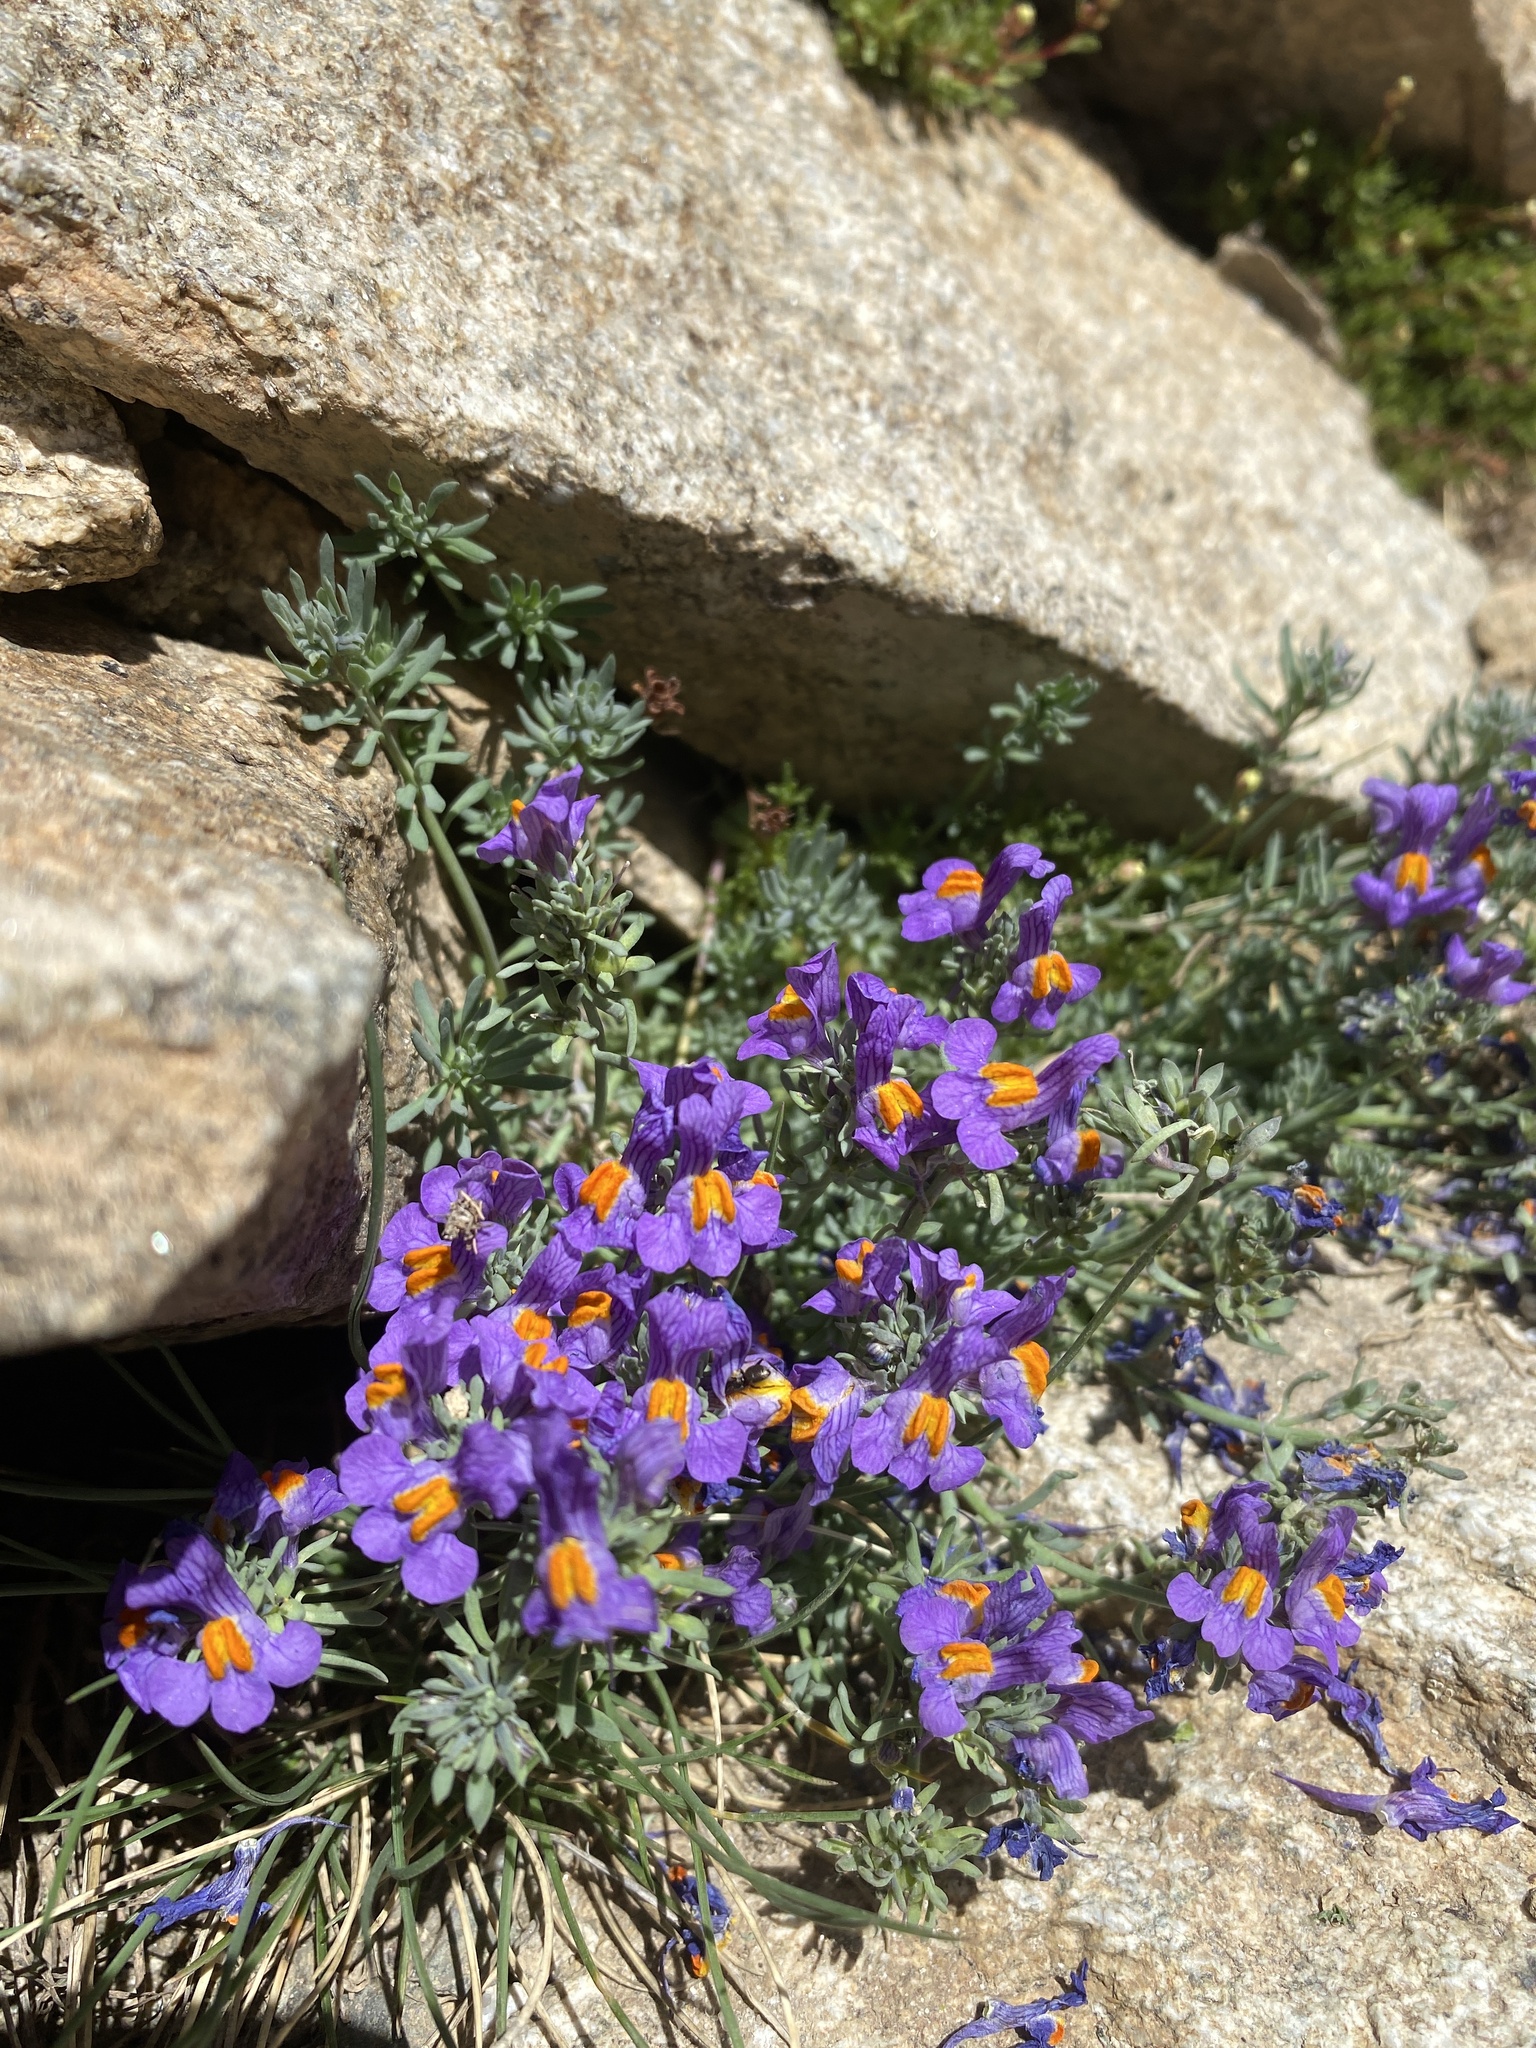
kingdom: Plantae
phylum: Tracheophyta
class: Magnoliopsida
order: Lamiales
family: Plantaginaceae
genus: Linaria
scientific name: Linaria alpina
